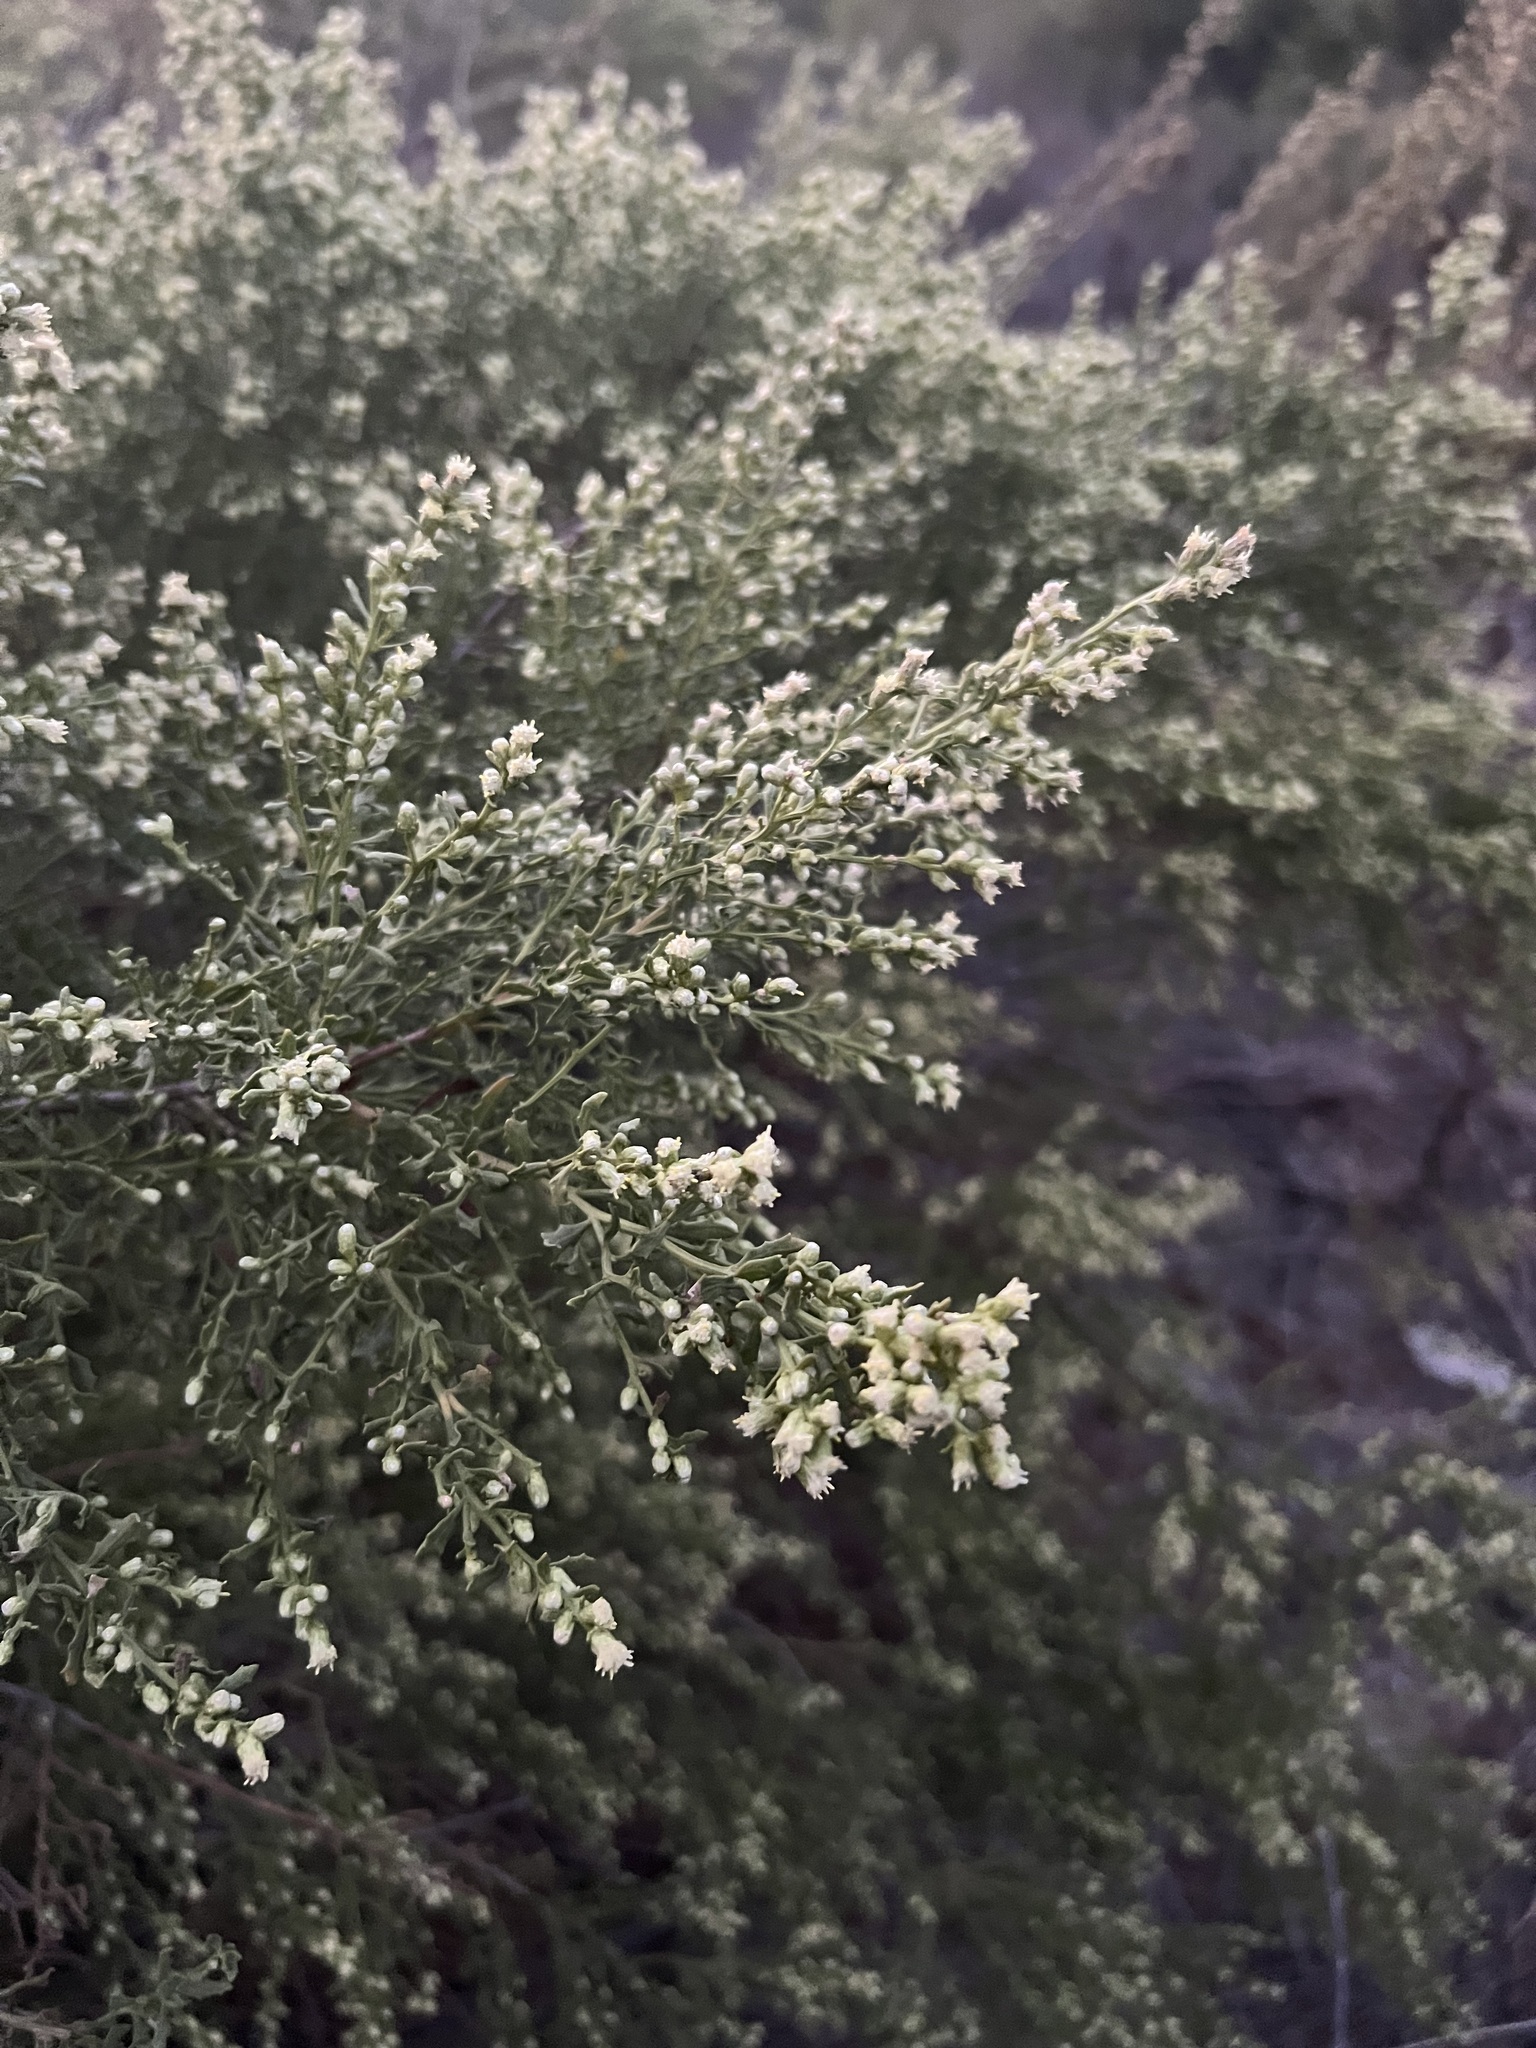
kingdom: Plantae
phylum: Tracheophyta
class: Magnoliopsida
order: Asterales
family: Asteraceae
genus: Baccharis
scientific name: Baccharis pilularis
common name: Coyotebrush
